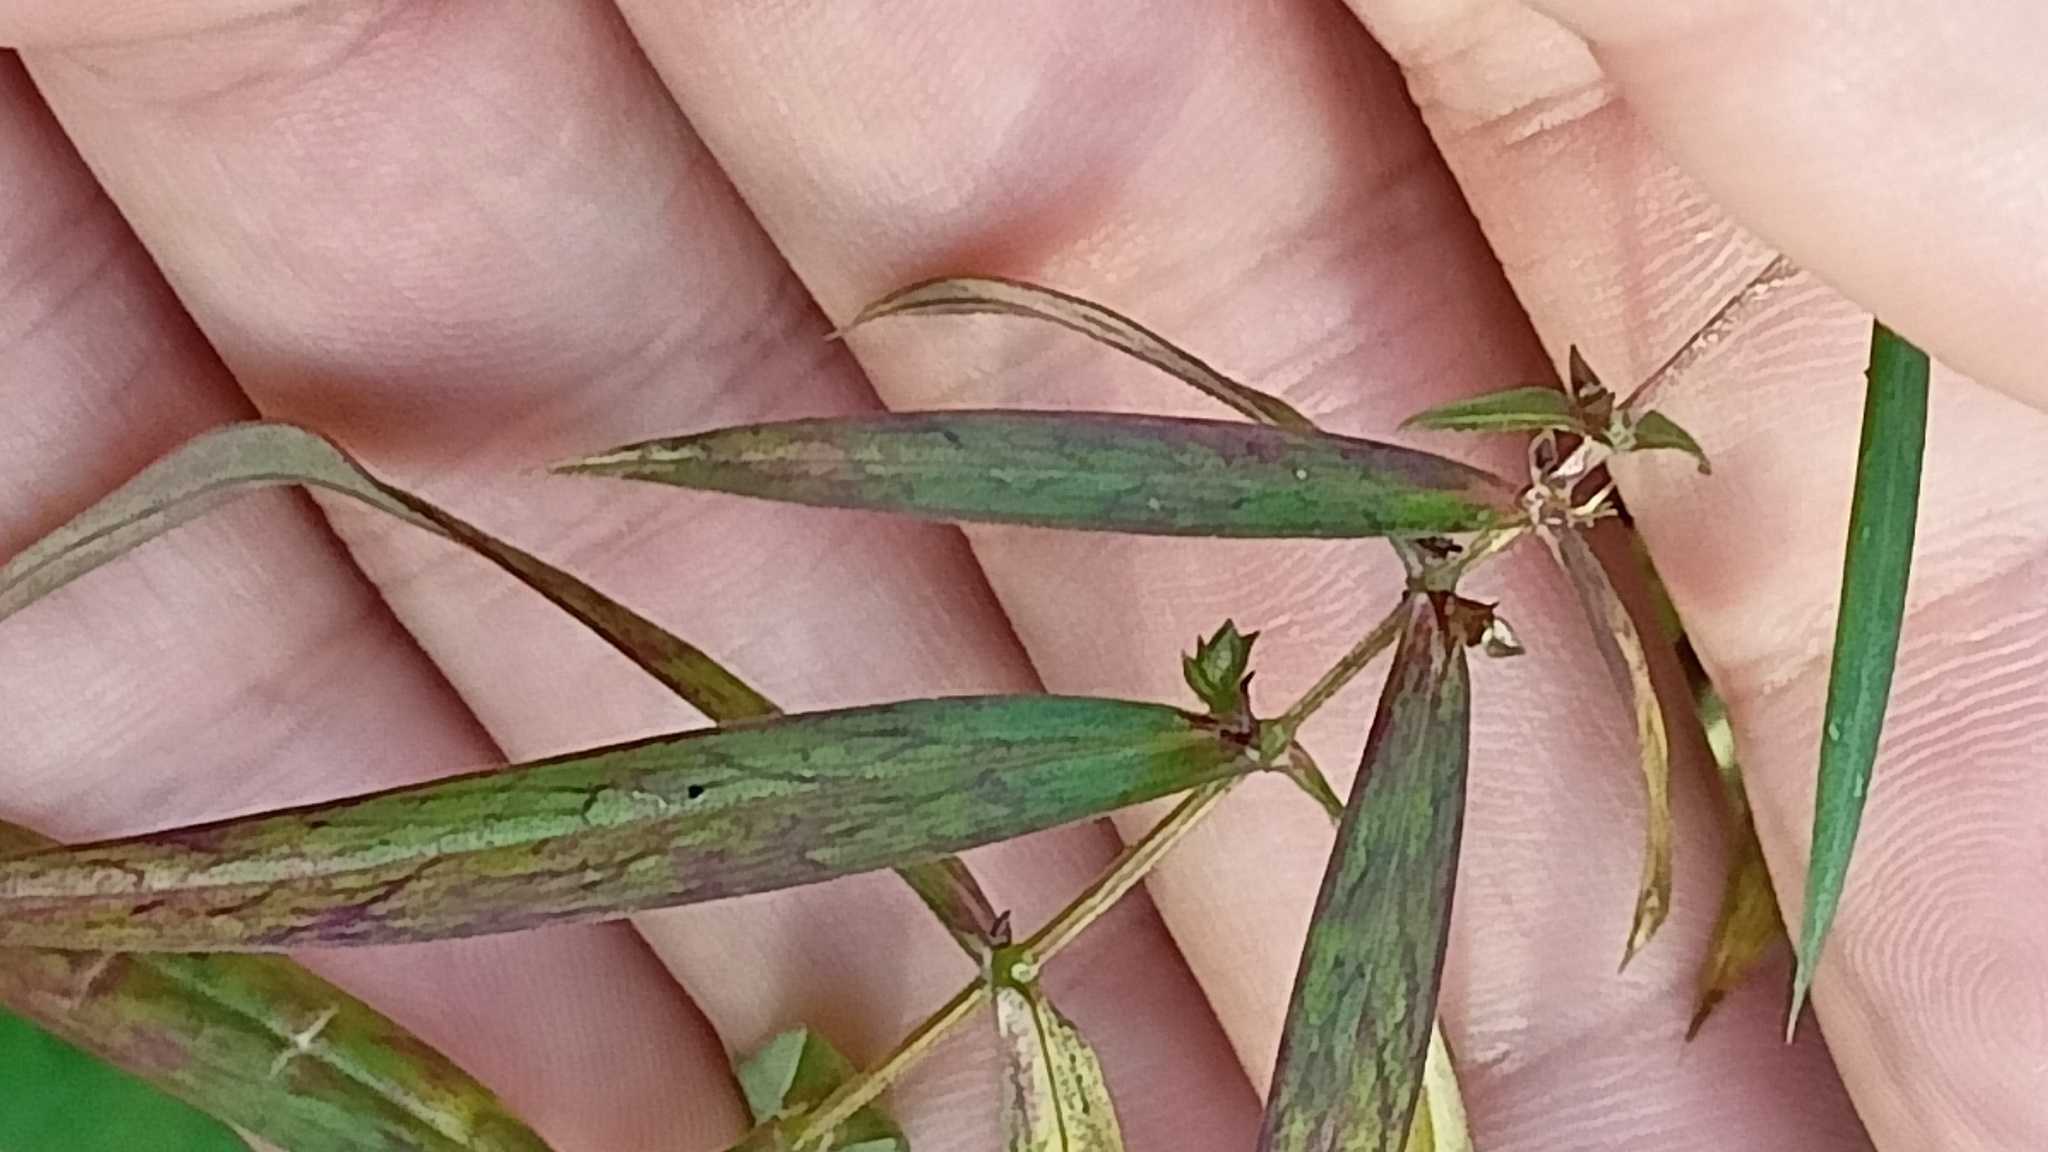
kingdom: Plantae
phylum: Tracheophyta
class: Magnoliopsida
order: Caryophyllales
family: Caryophyllaceae
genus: Rabelera
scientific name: Rabelera holostea
